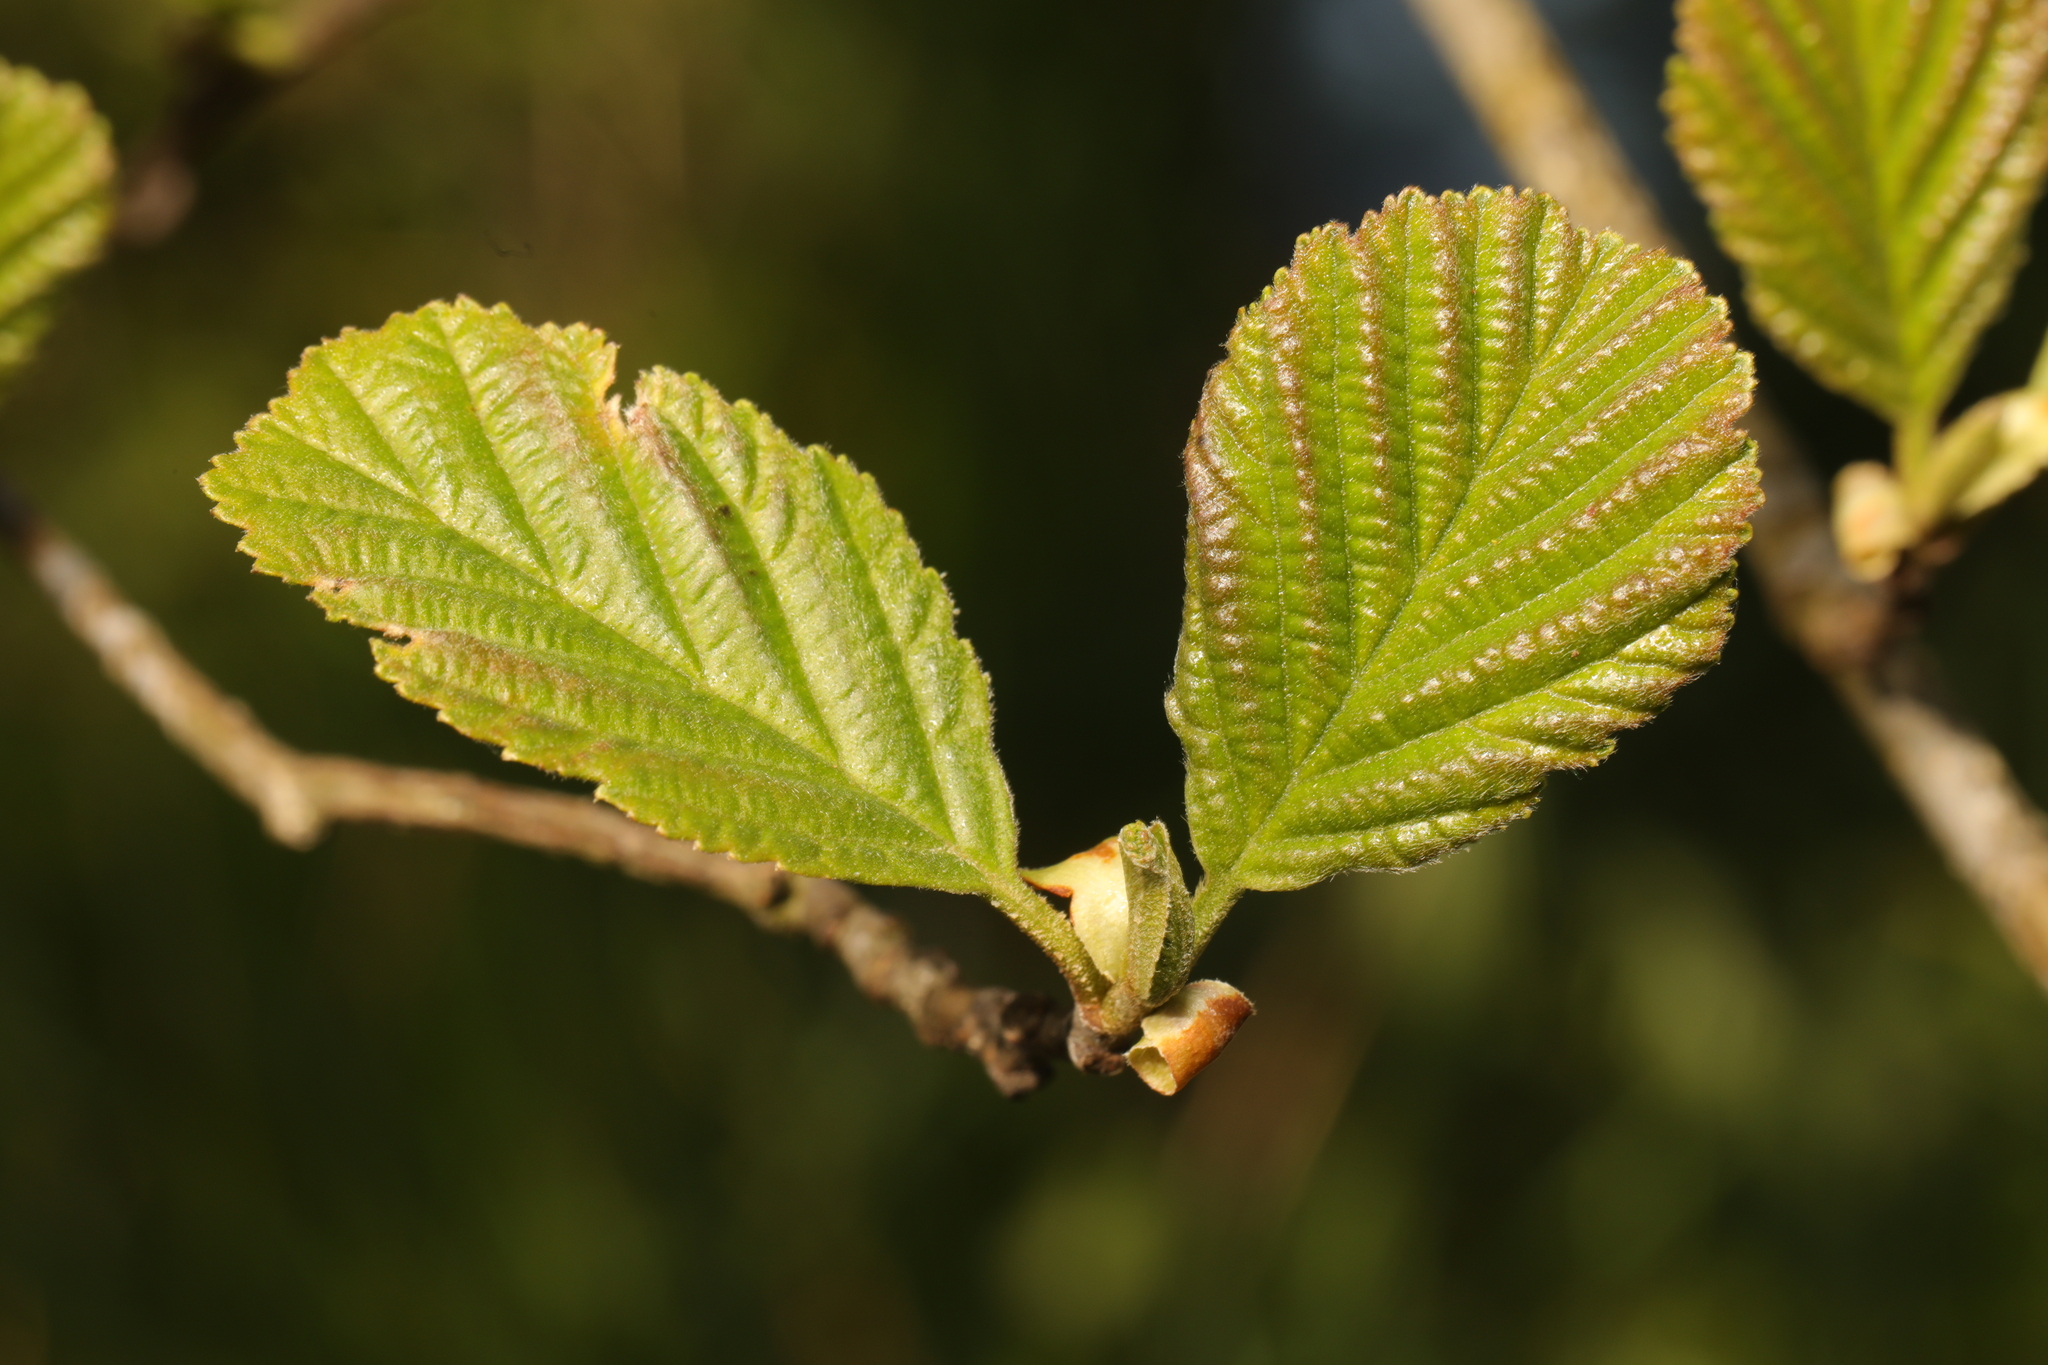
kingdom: Plantae
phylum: Tracheophyta
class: Magnoliopsida
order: Fagales
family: Betulaceae
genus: Alnus
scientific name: Alnus glutinosa
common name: Black alder
